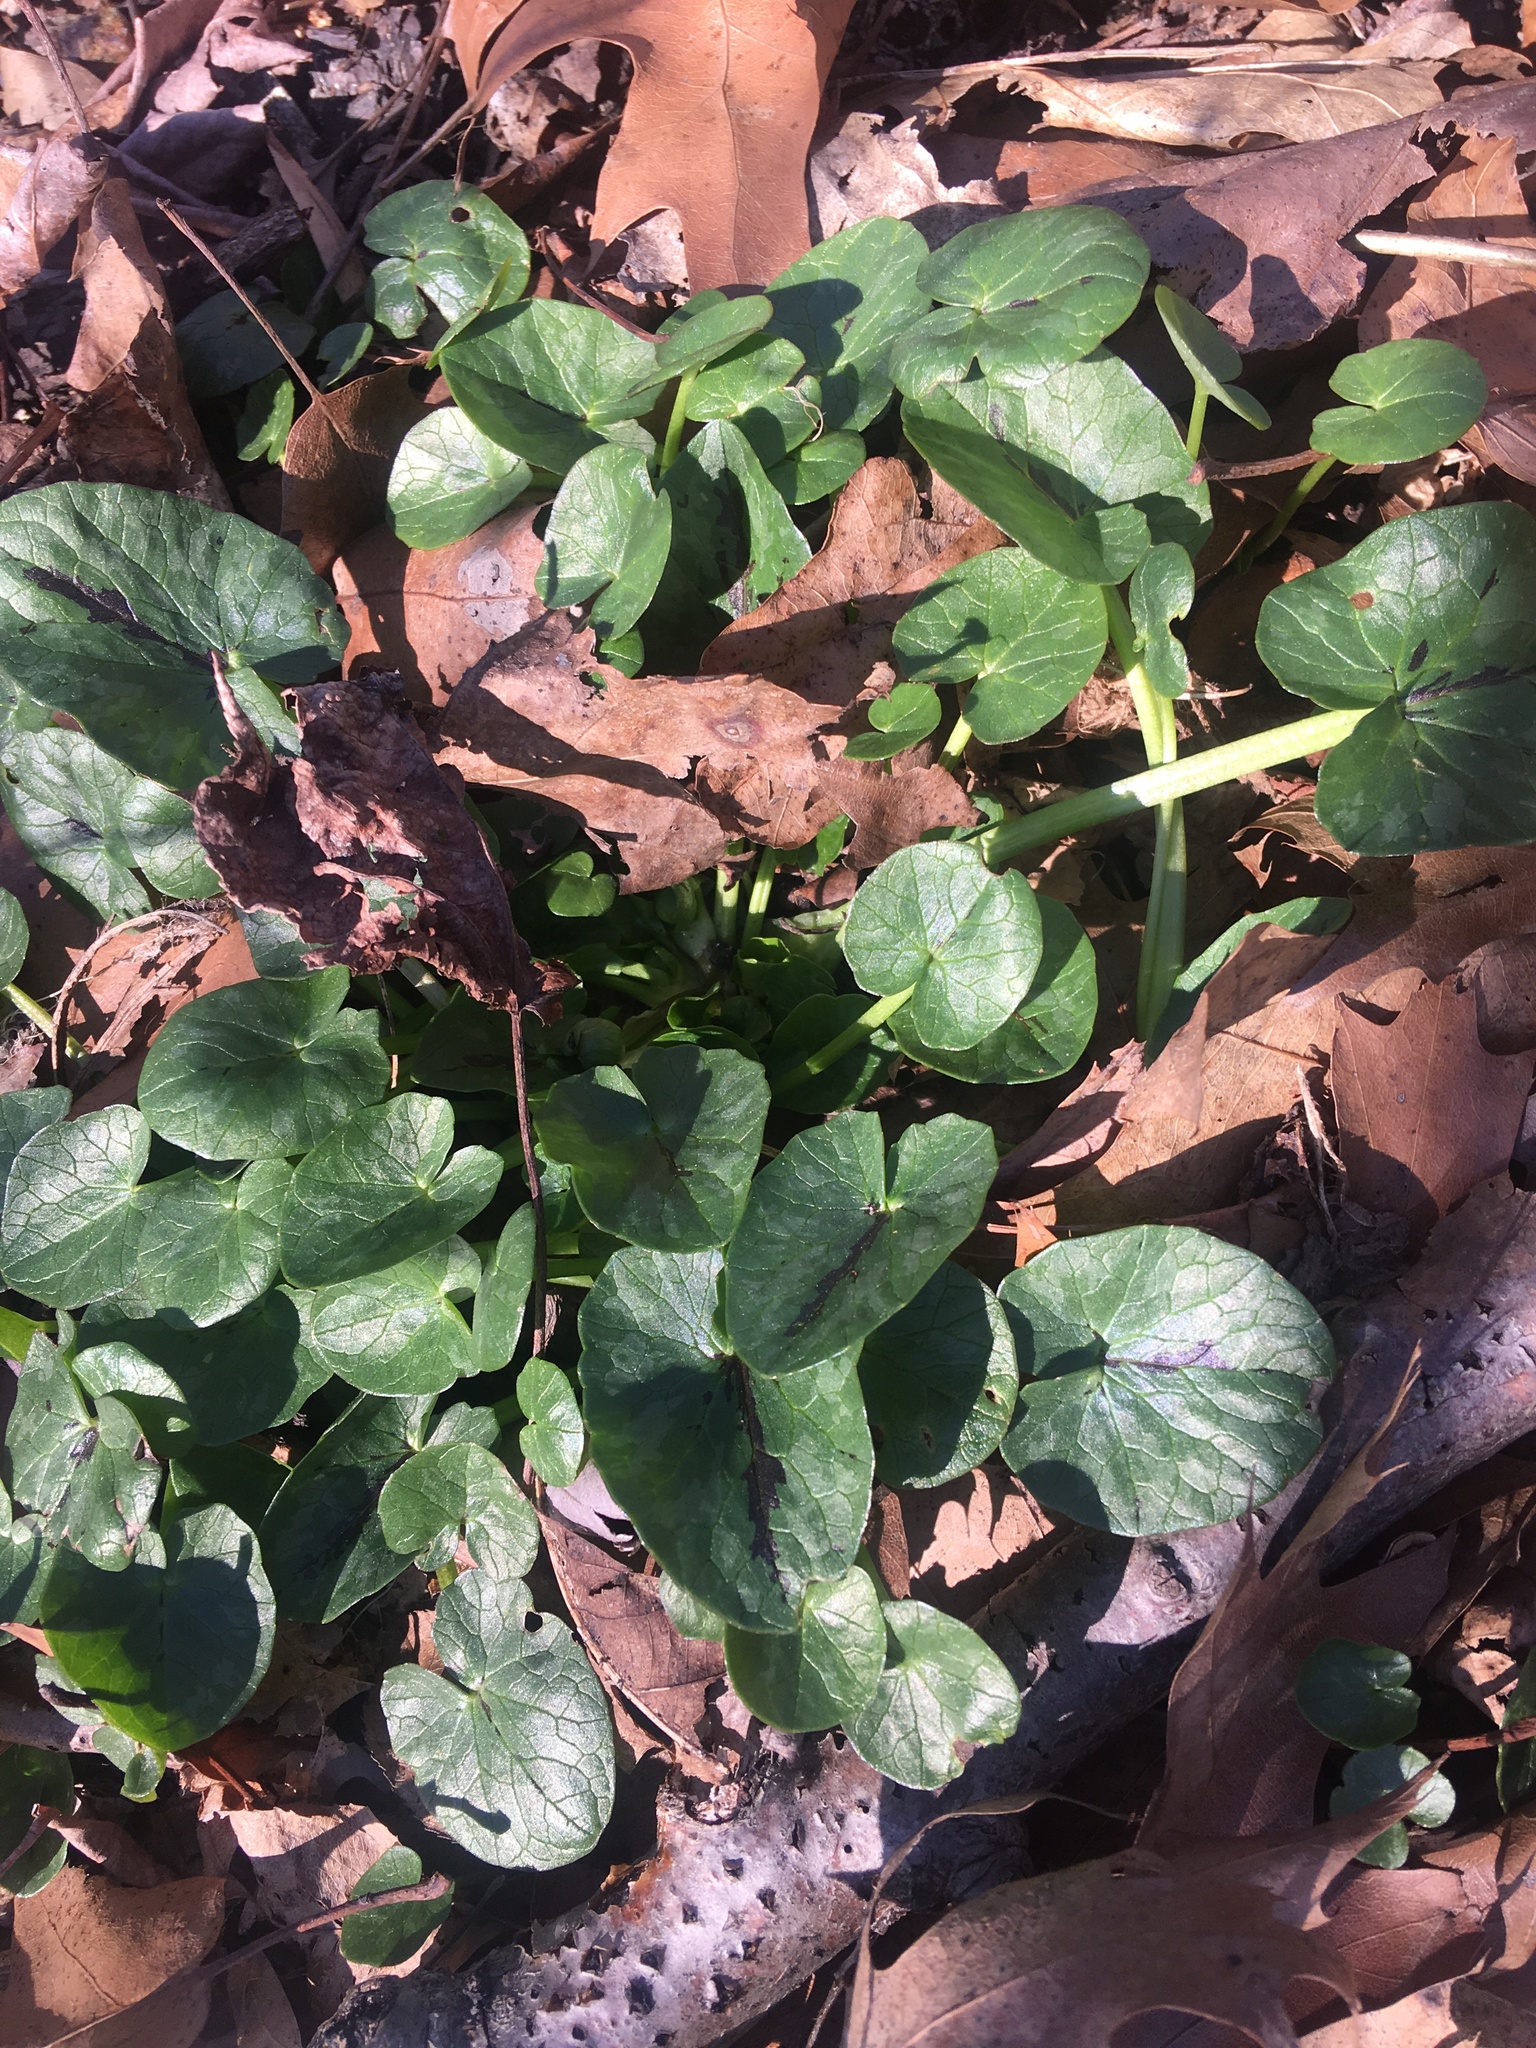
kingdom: Plantae
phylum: Tracheophyta
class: Magnoliopsida
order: Ranunculales
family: Ranunculaceae
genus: Ficaria
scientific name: Ficaria verna
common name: Lesser celandine
